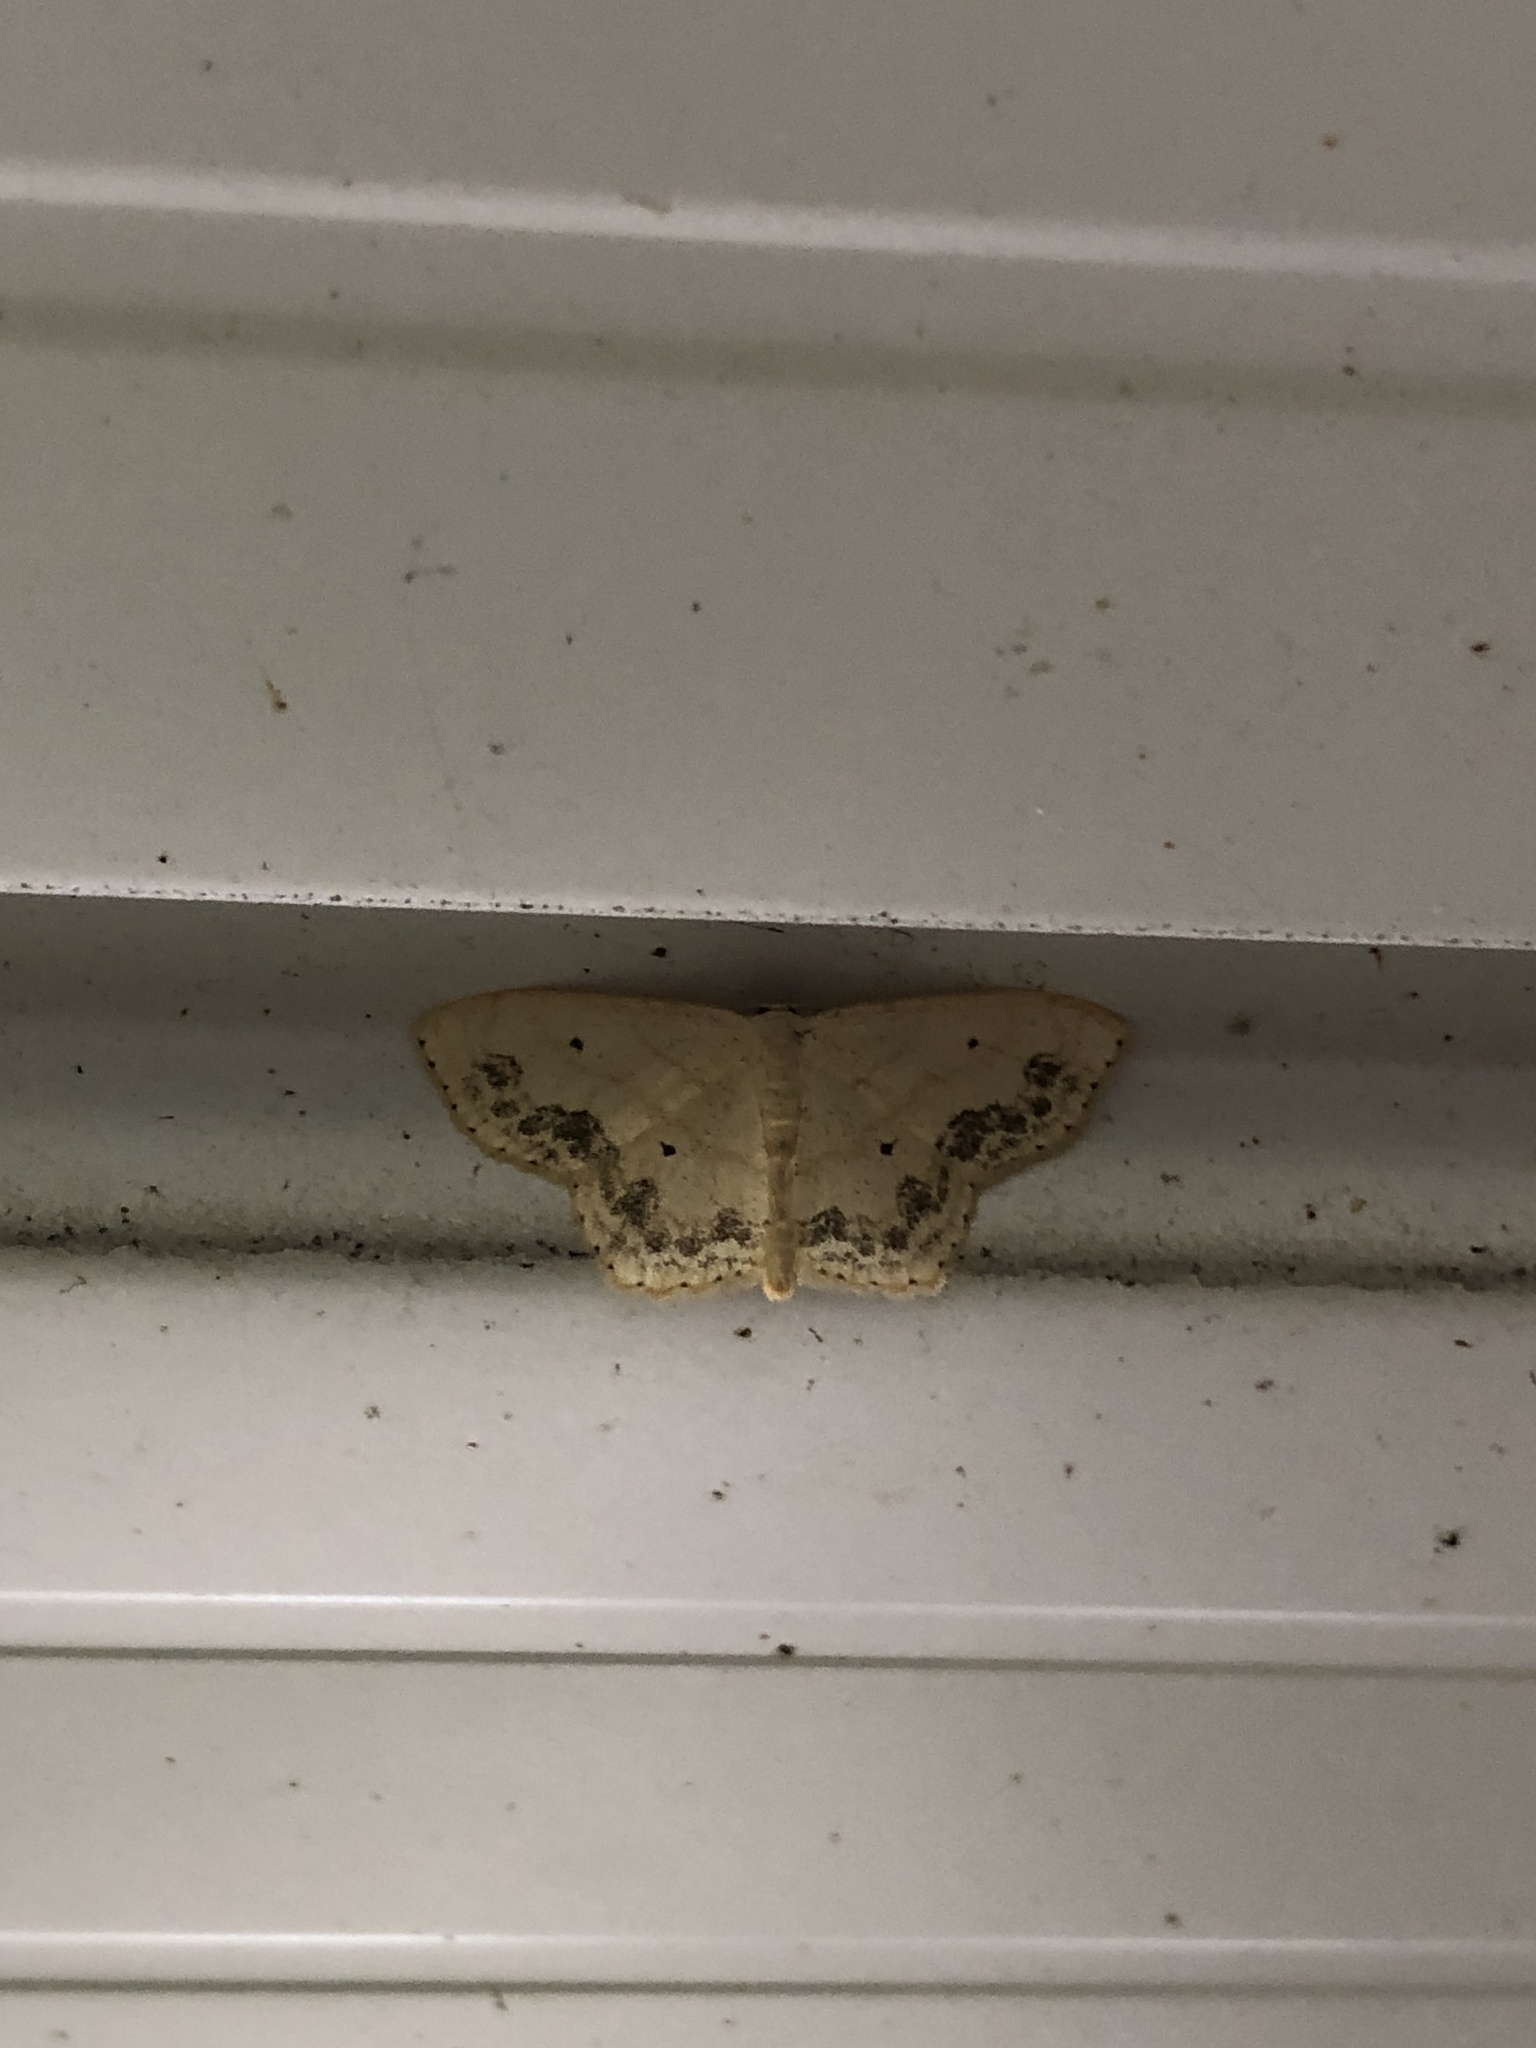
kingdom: Animalia
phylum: Arthropoda
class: Insecta
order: Lepidoptera
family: Geometridae
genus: Scopula
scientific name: Scopula limboundata
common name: Large lace border
